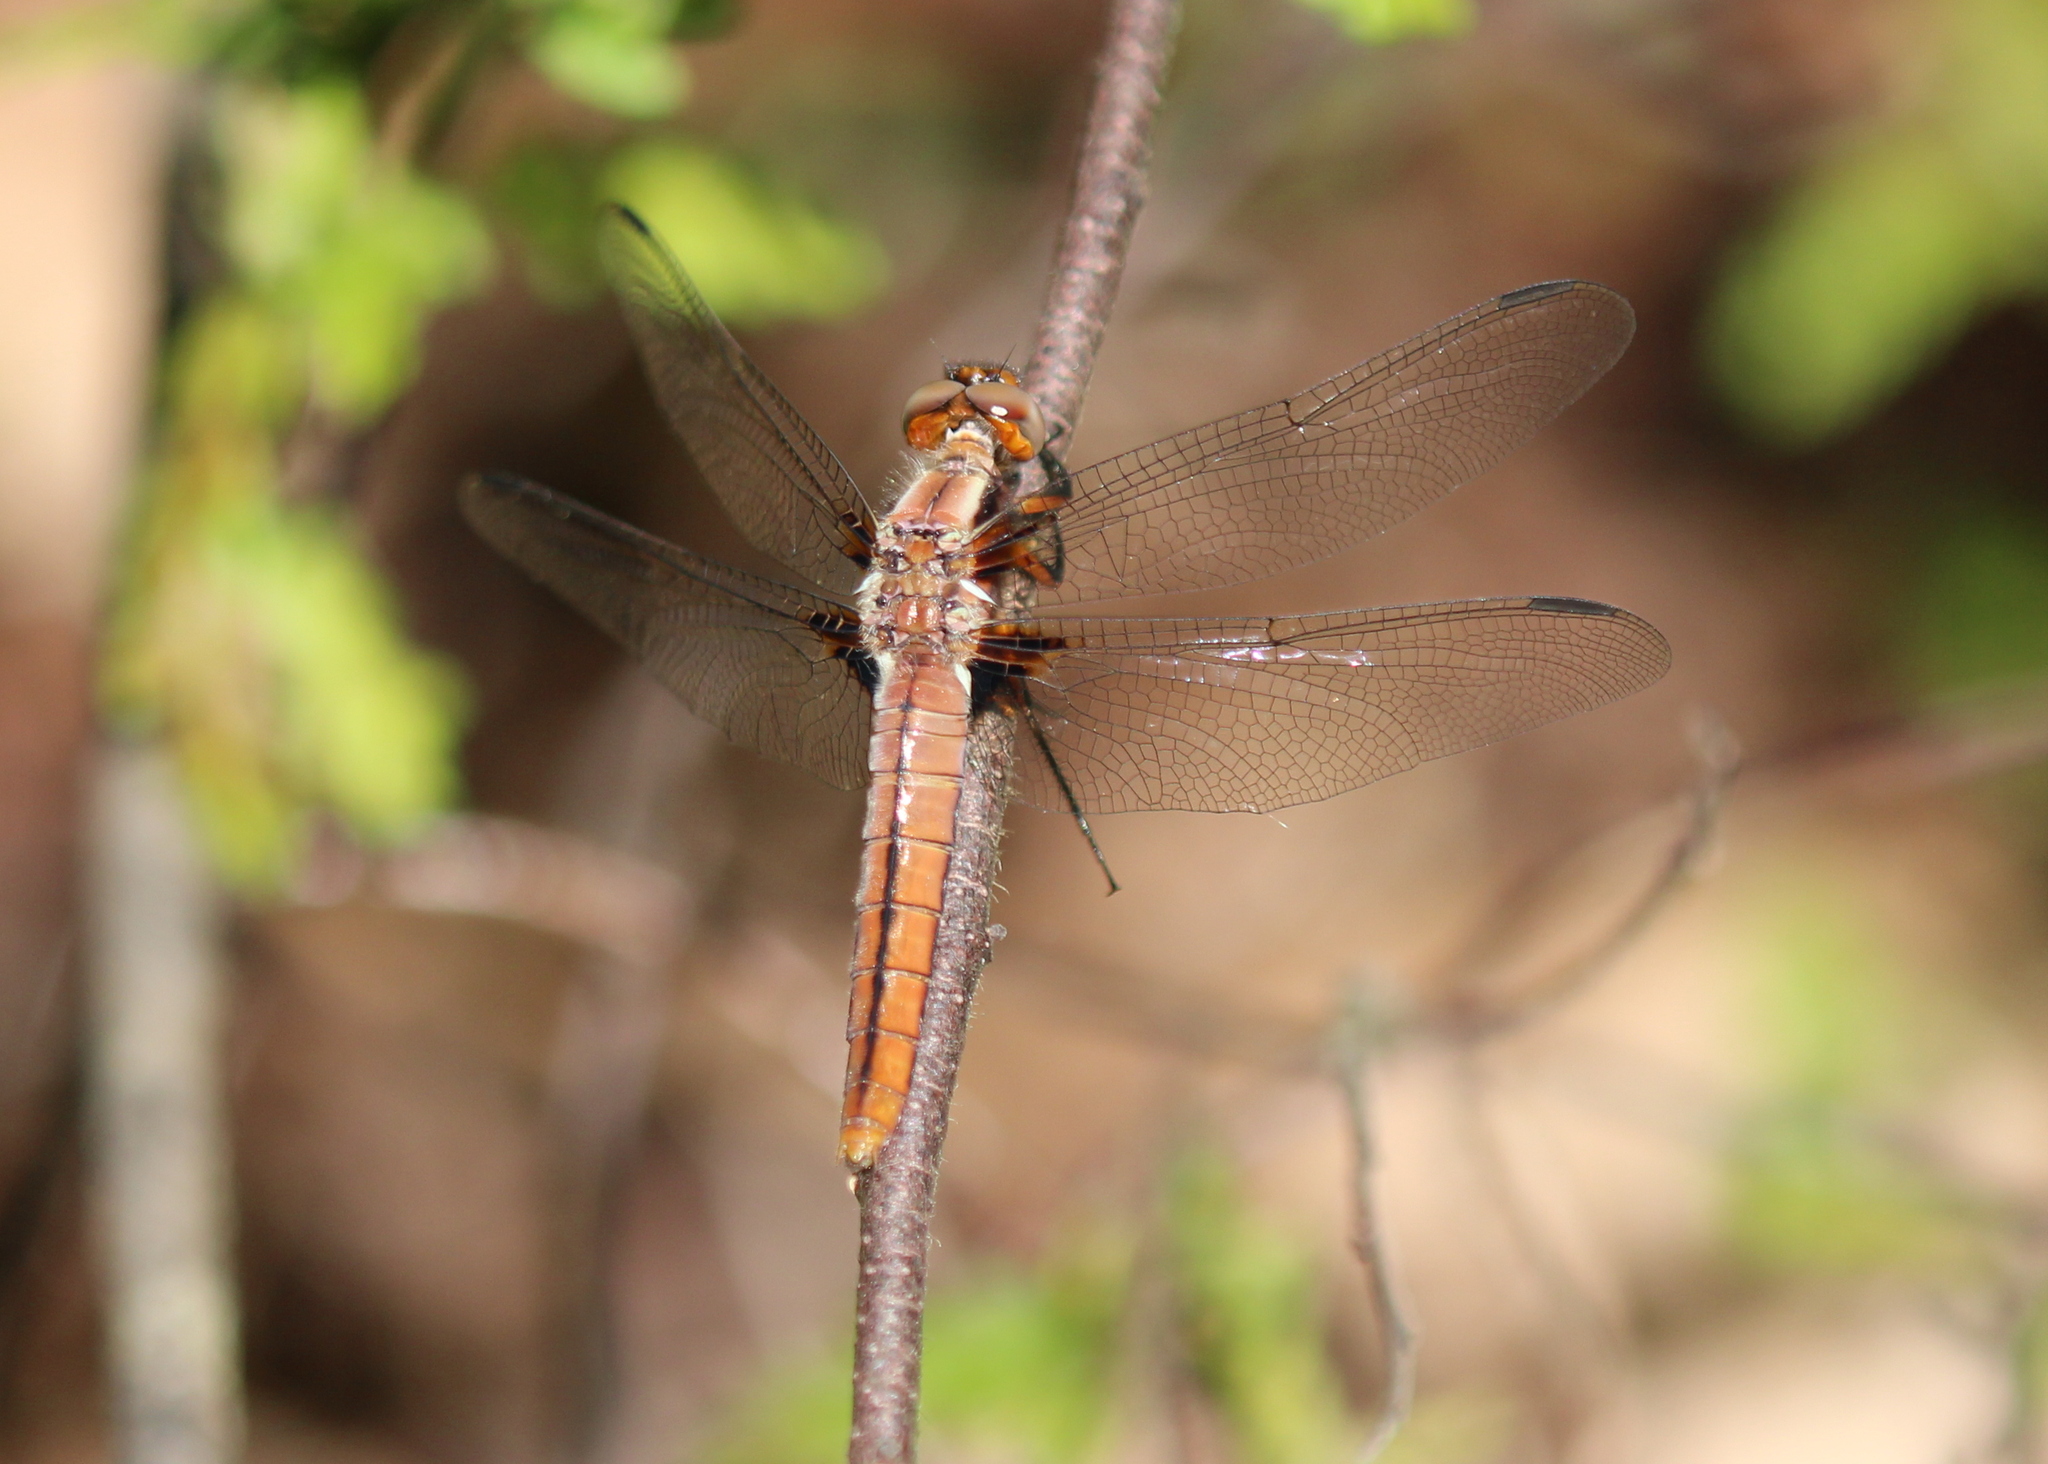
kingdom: Animalia
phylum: Arthropoda
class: Insecta
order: Odonata
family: Libellulidae
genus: Ladona
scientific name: Ladona julia
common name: Chalk-fronted corporal
